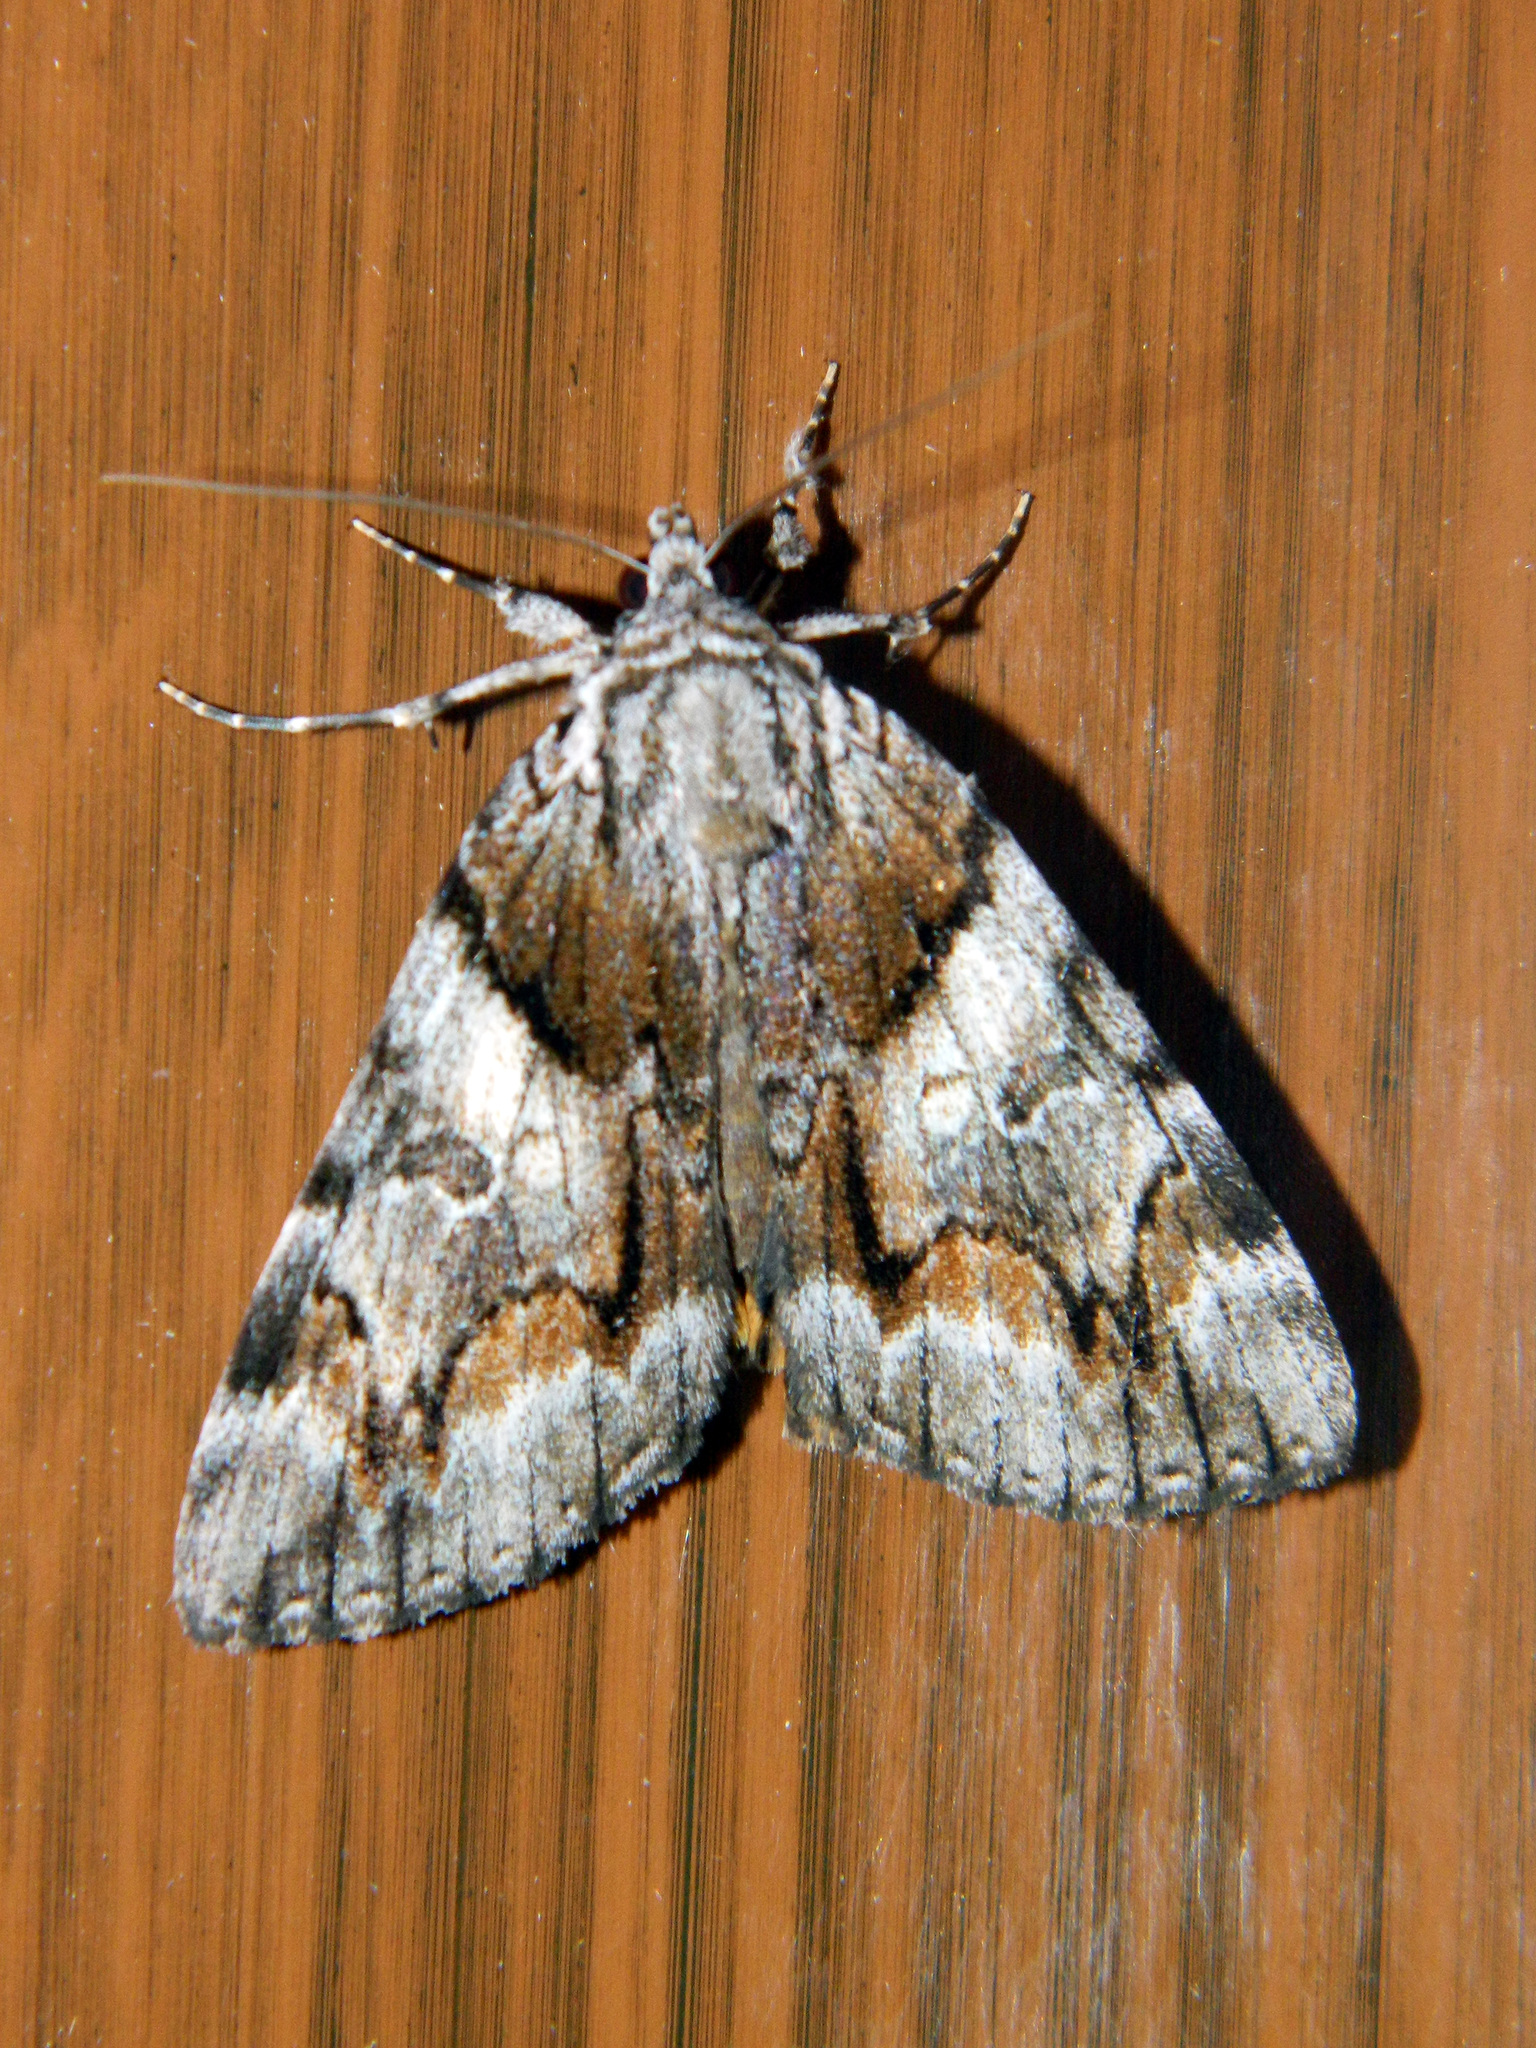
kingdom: Animalia
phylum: Arthropoda
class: Insecta
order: Lepidoptera
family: Erebidae
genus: Catocala
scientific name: Catocala blandula
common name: Charming underwing
